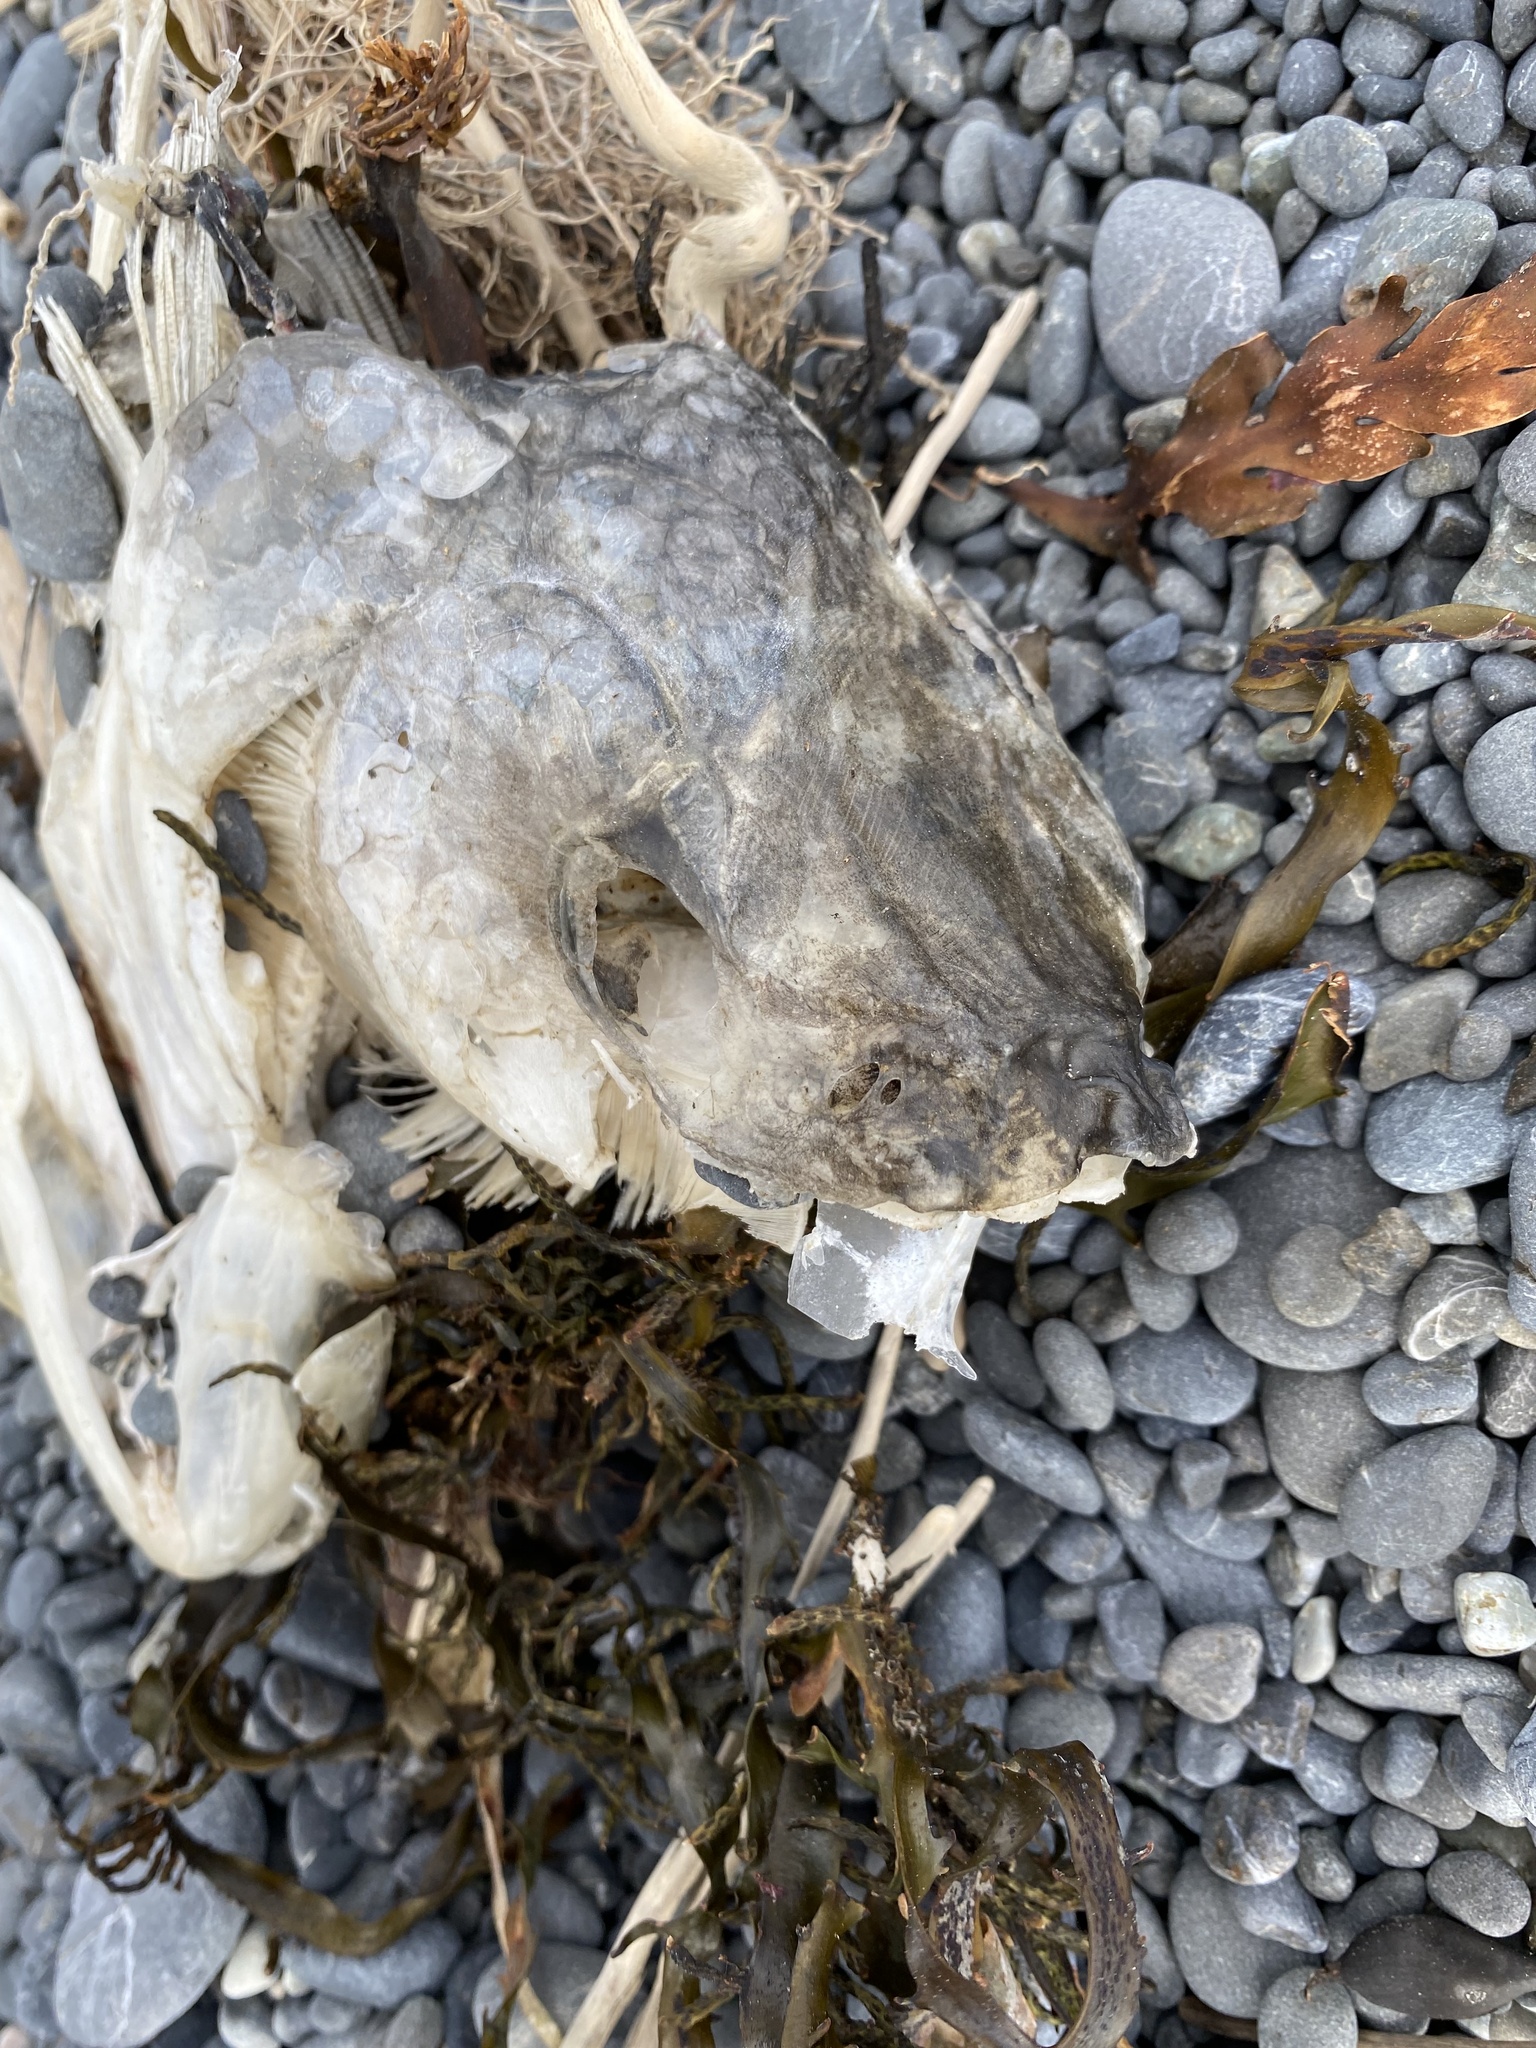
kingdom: Animalia
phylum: Chordata
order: Perciformes
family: Arripidae
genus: Arripis
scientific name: Arripis trutta
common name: Kahawai
